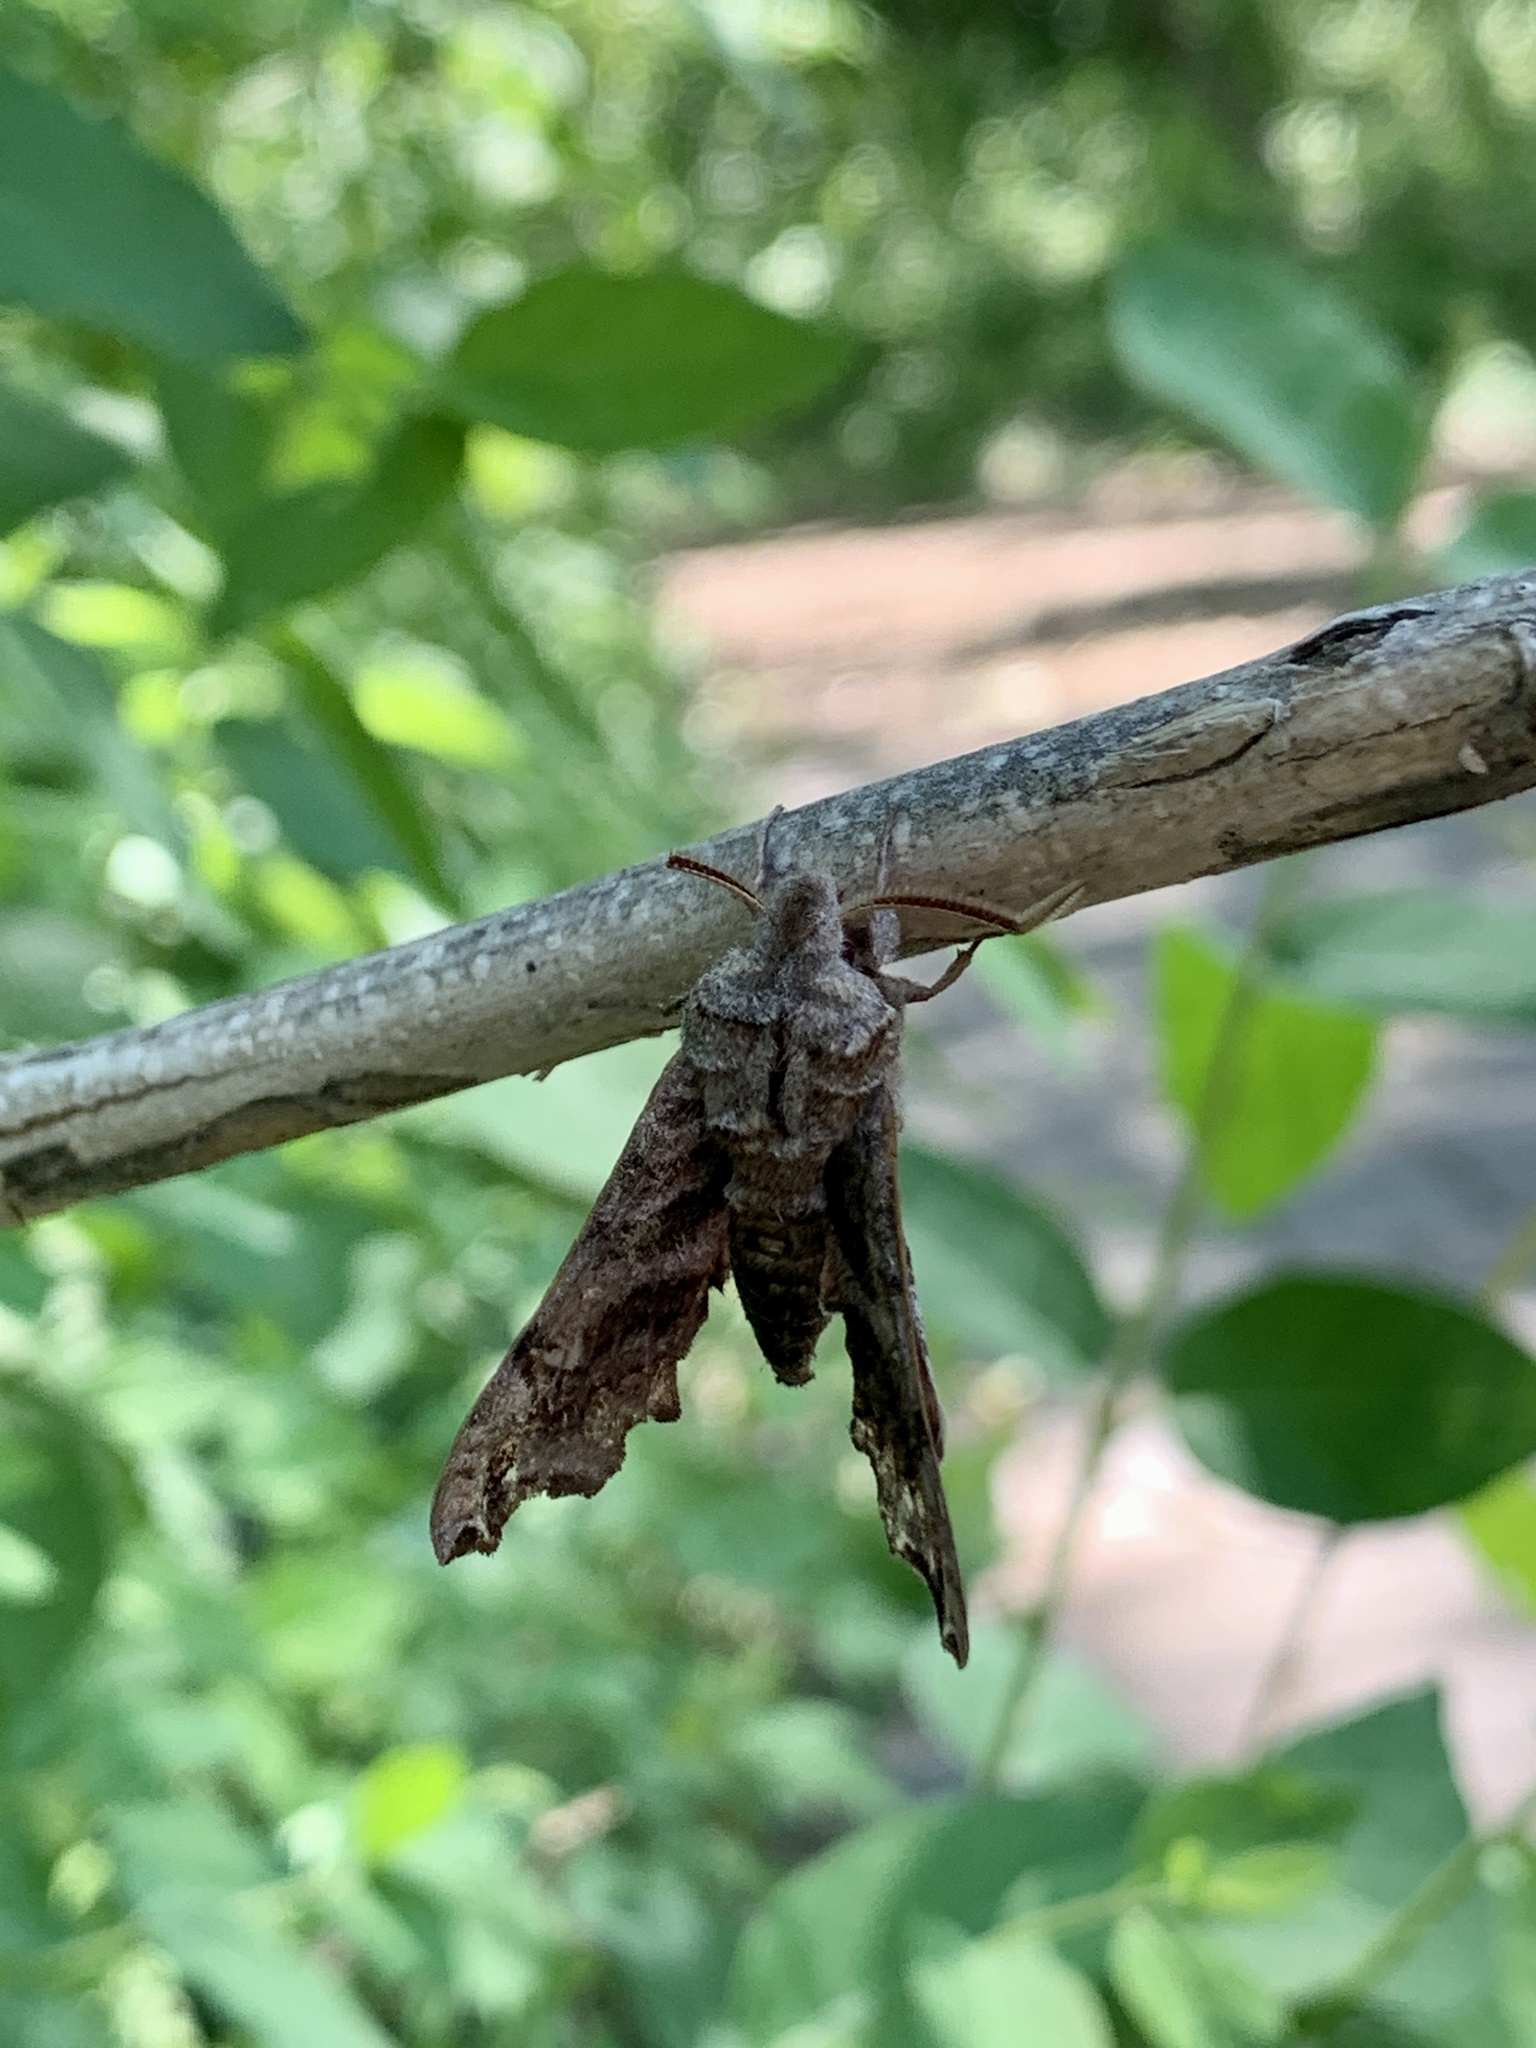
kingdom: Animalia
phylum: Arthropoda
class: Insecta
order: Lepidoptera
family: Sphingidae
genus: Deidamia
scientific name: Deidamia inscriptum
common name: Lettered sphinx
